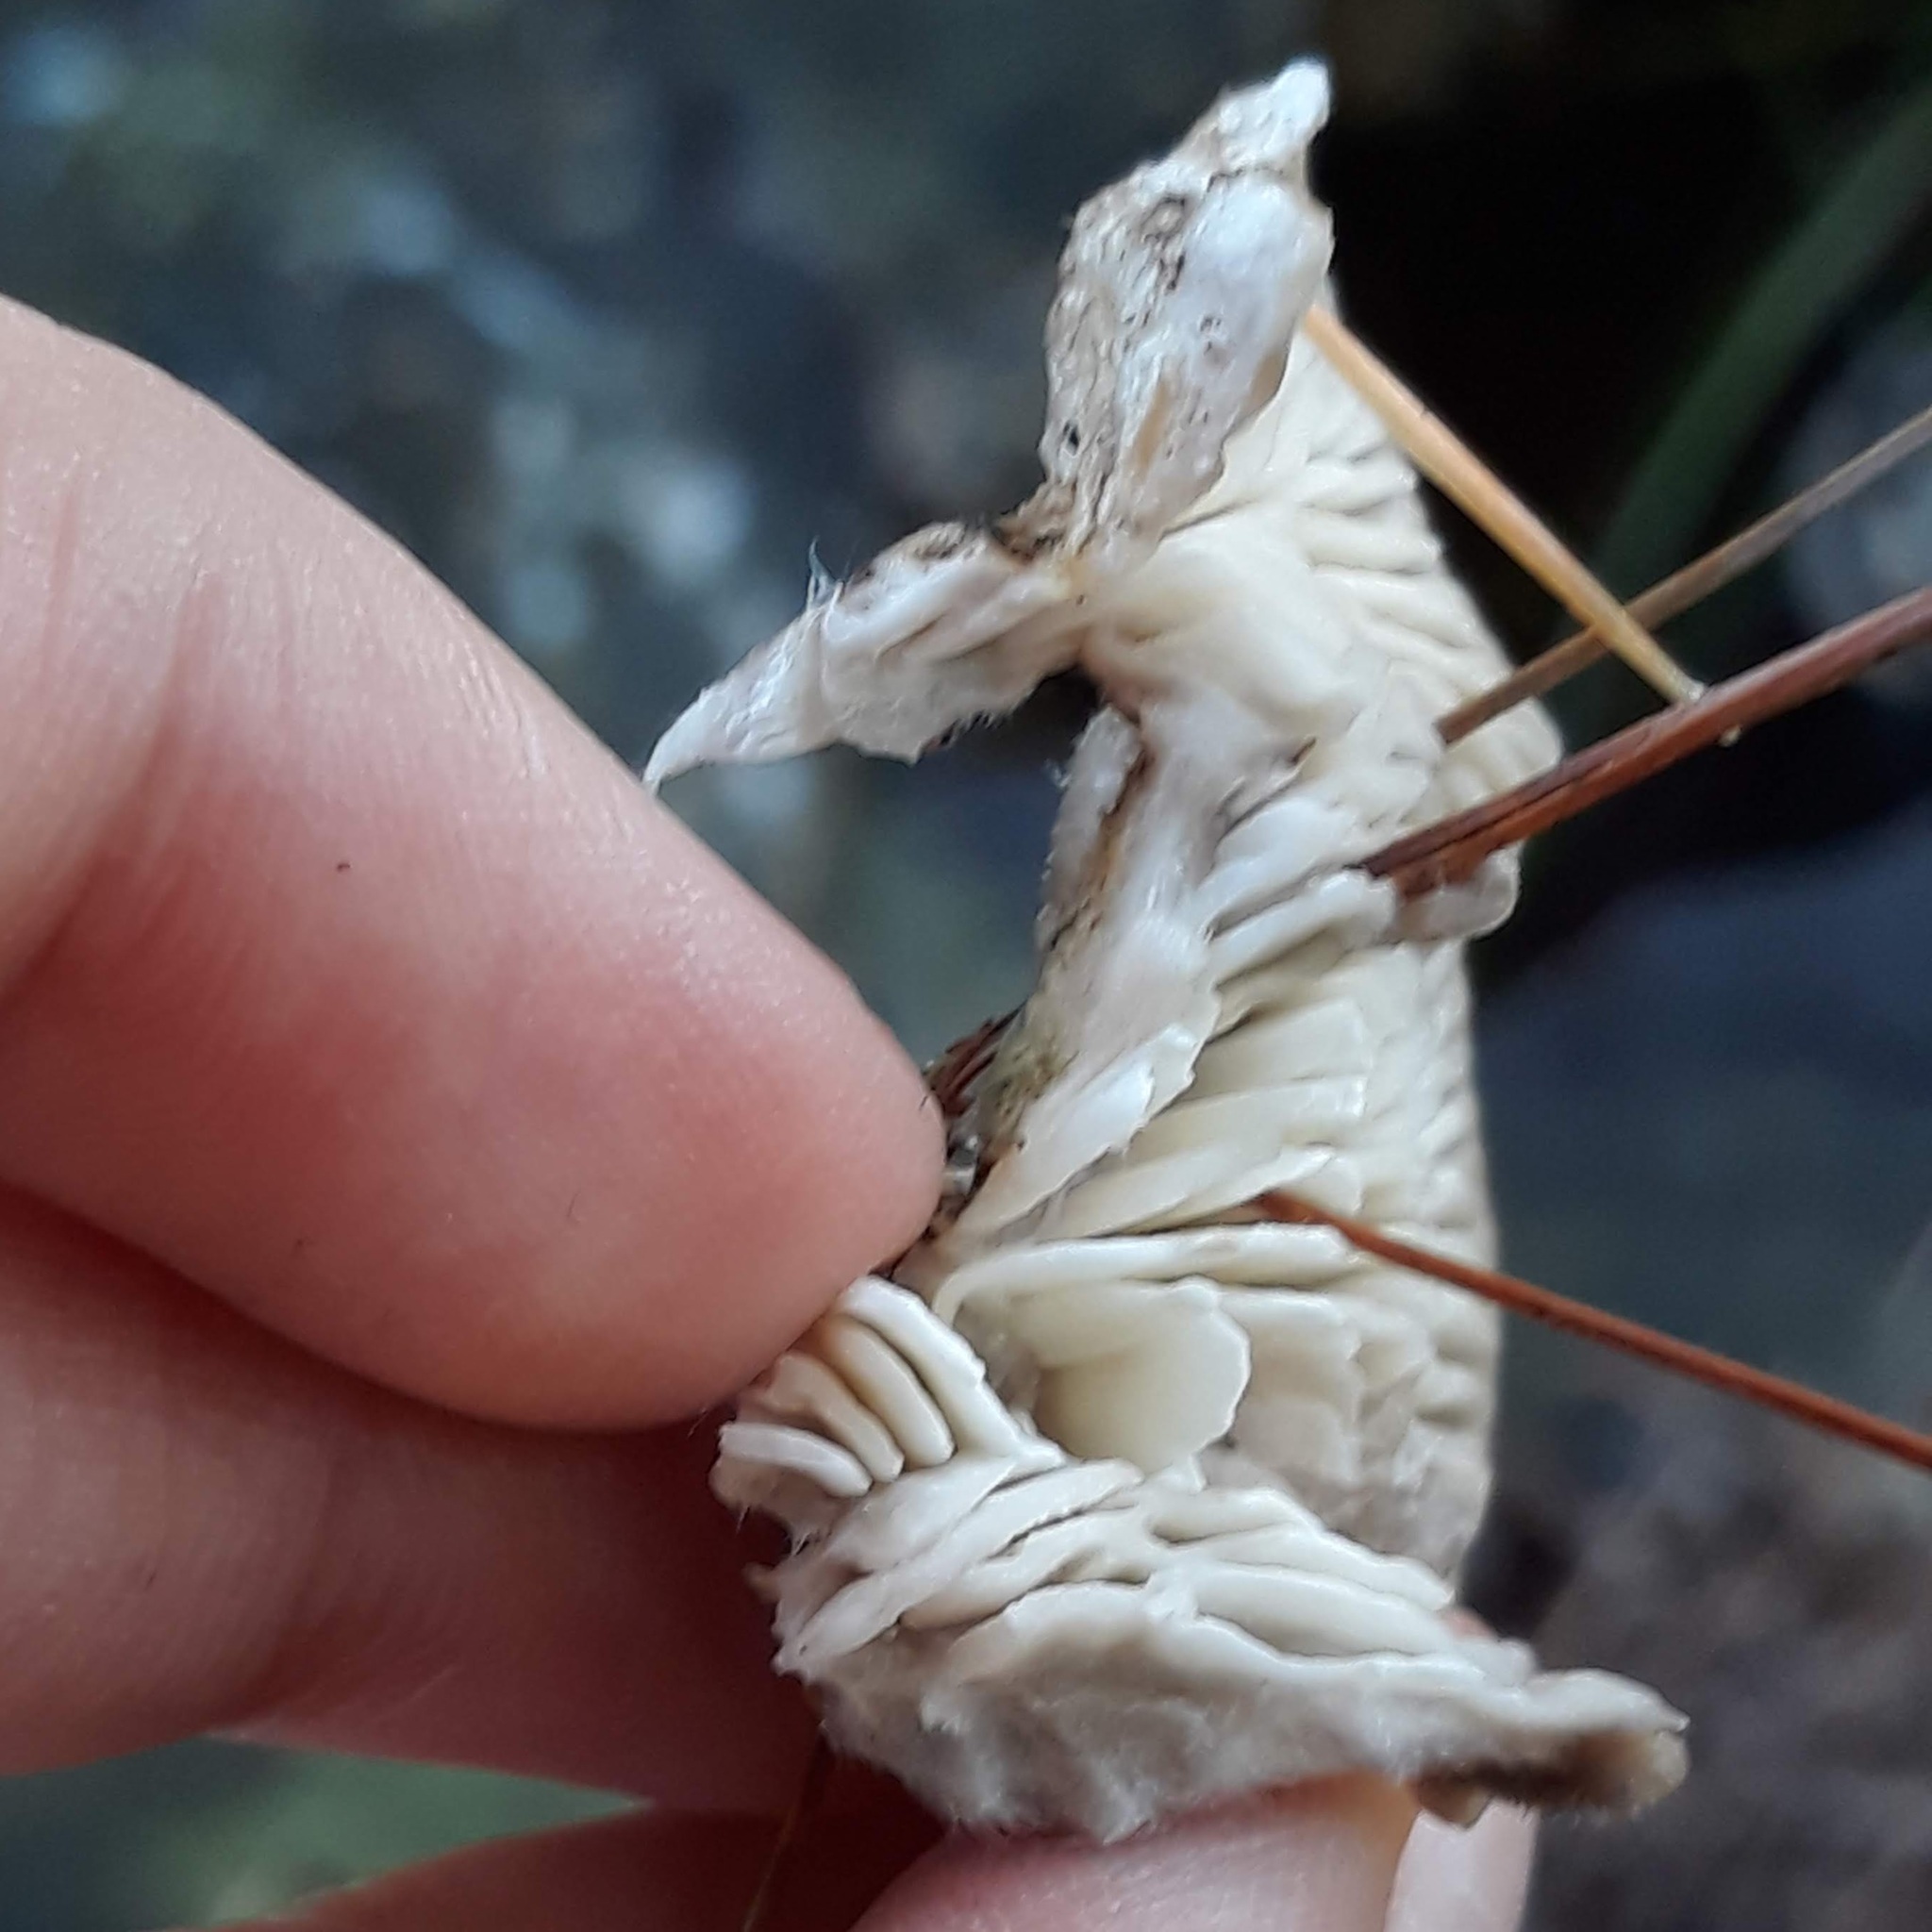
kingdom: Fungi
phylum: Basidiomycota
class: Agaricomycetes
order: Polyporales
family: Polyporaceae
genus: Lenzites
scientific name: Lenzites betulinus
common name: Birch mazegill
